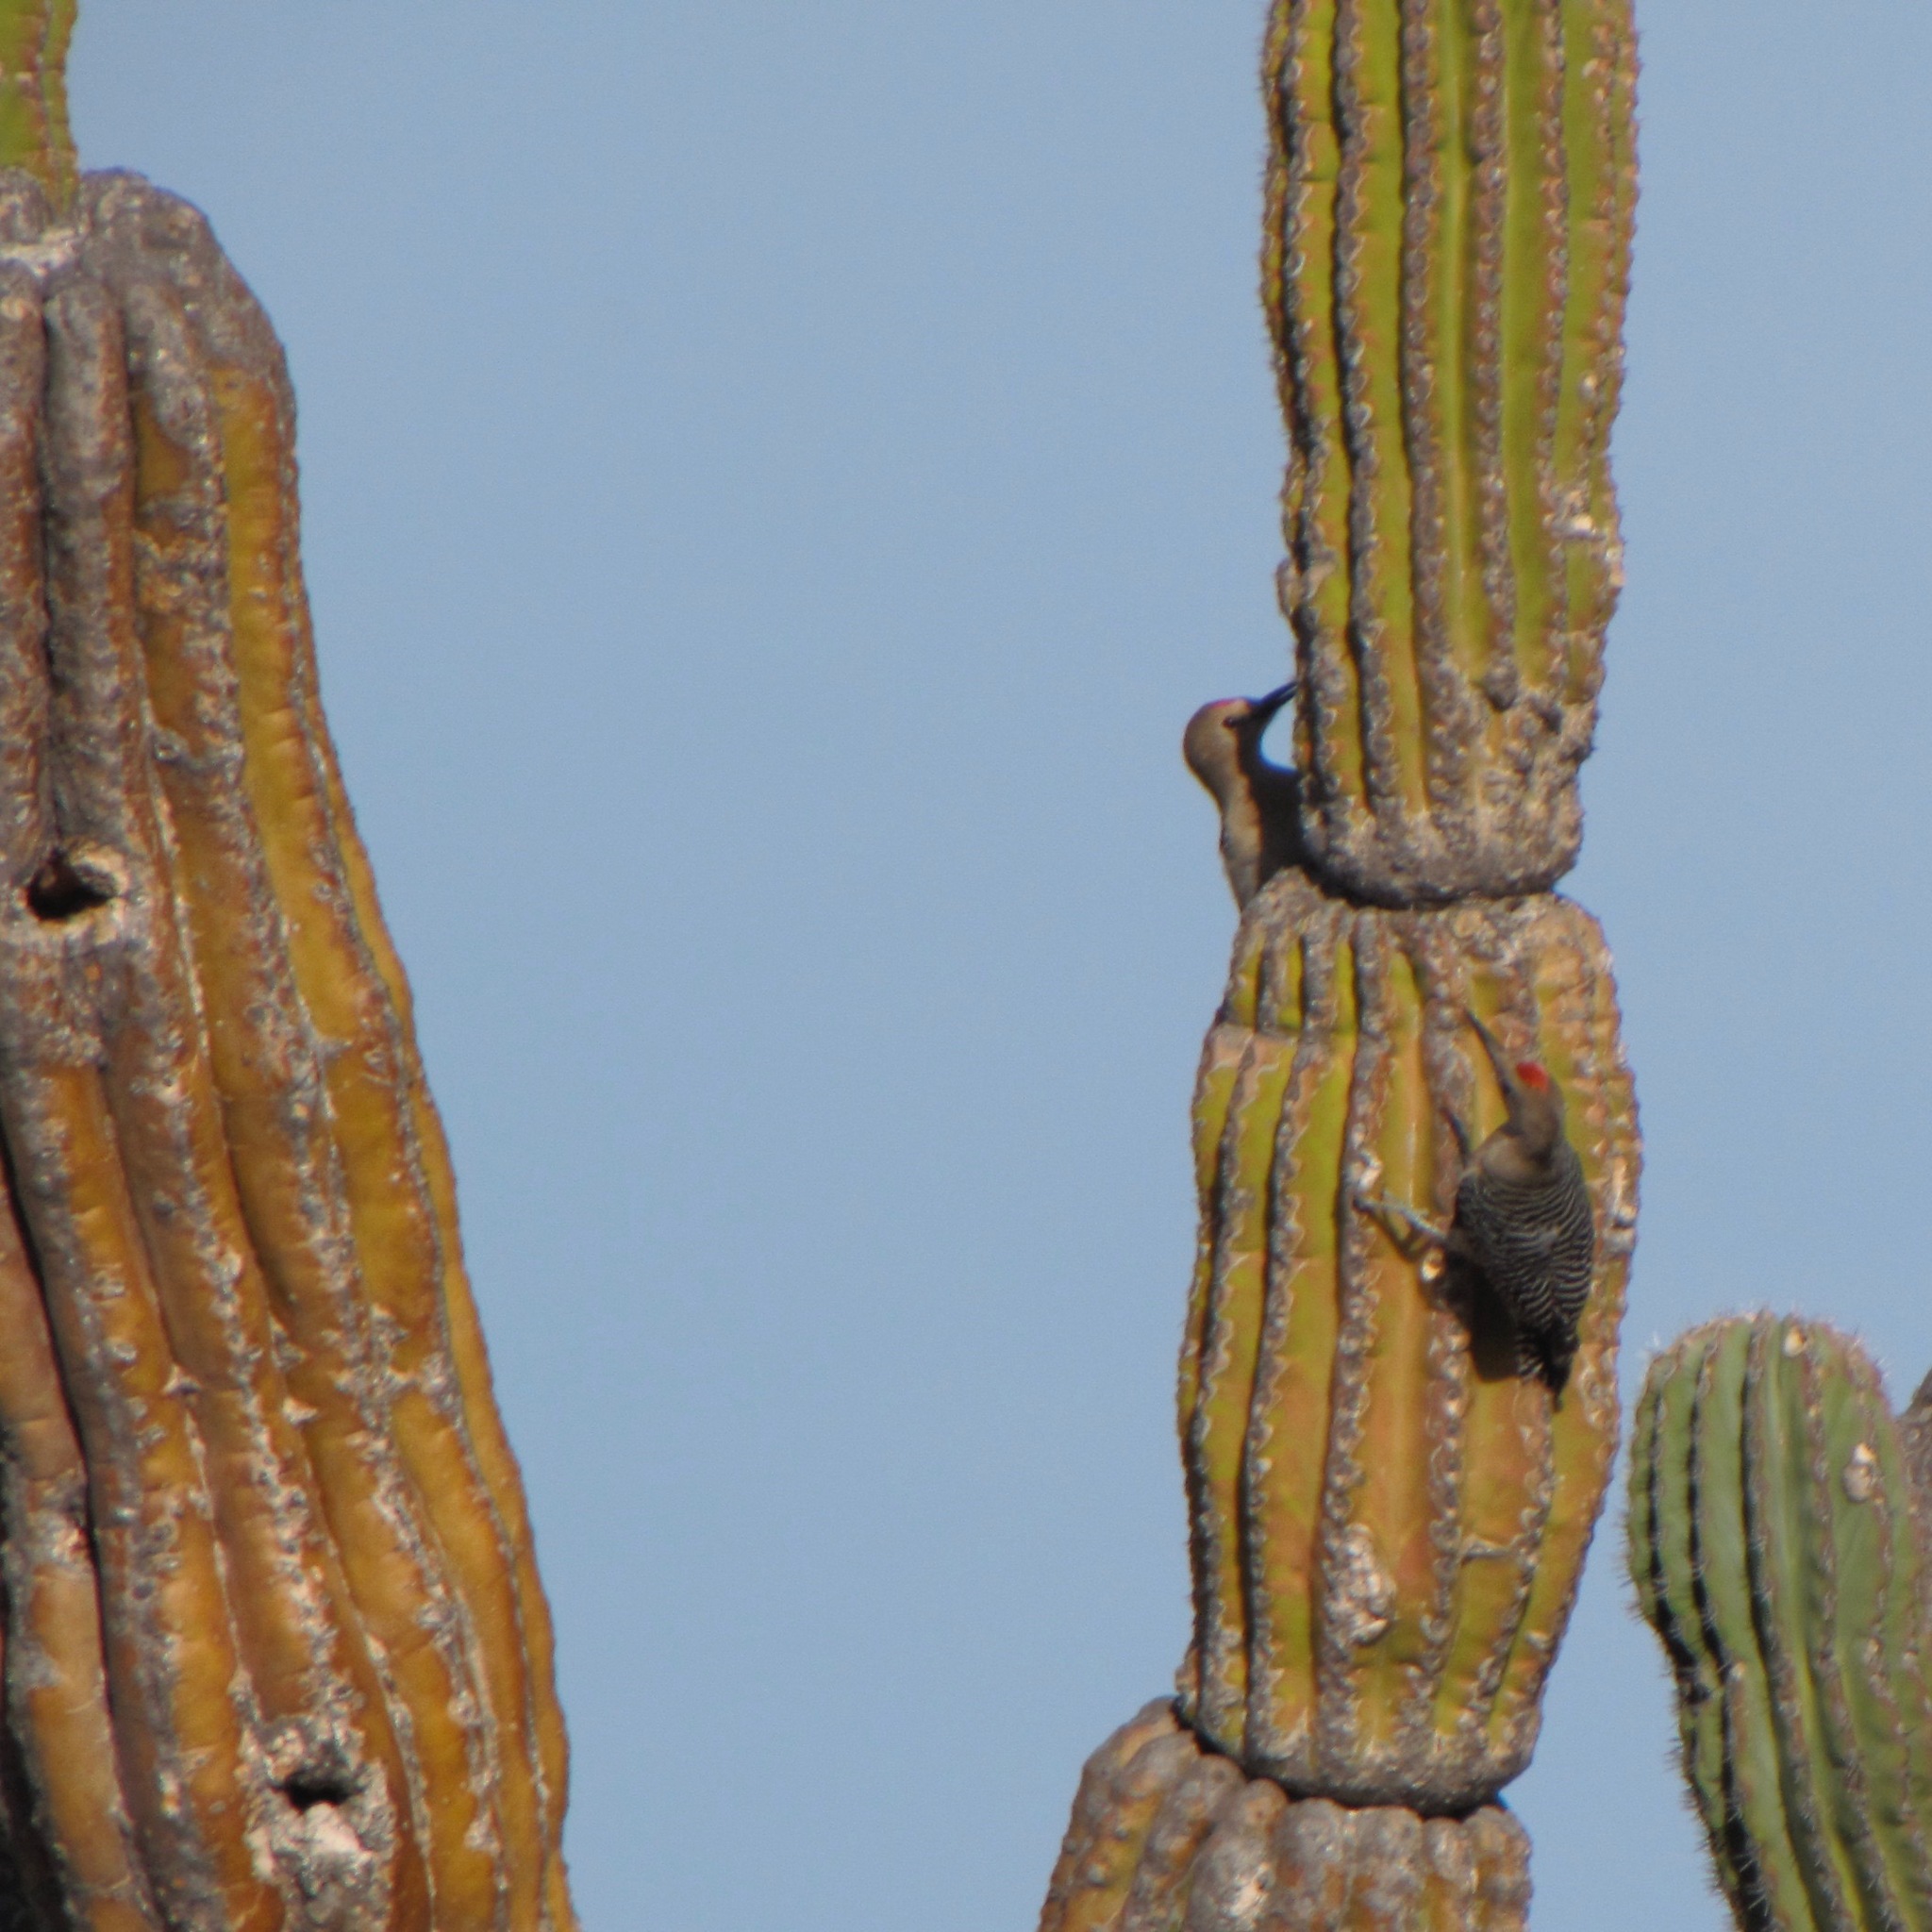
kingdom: Animalia
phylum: Chordata
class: Aves
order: Piciformes
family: Picidae
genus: Melanerpes
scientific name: Melanerpes uropygialis
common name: Gila woodpecker
